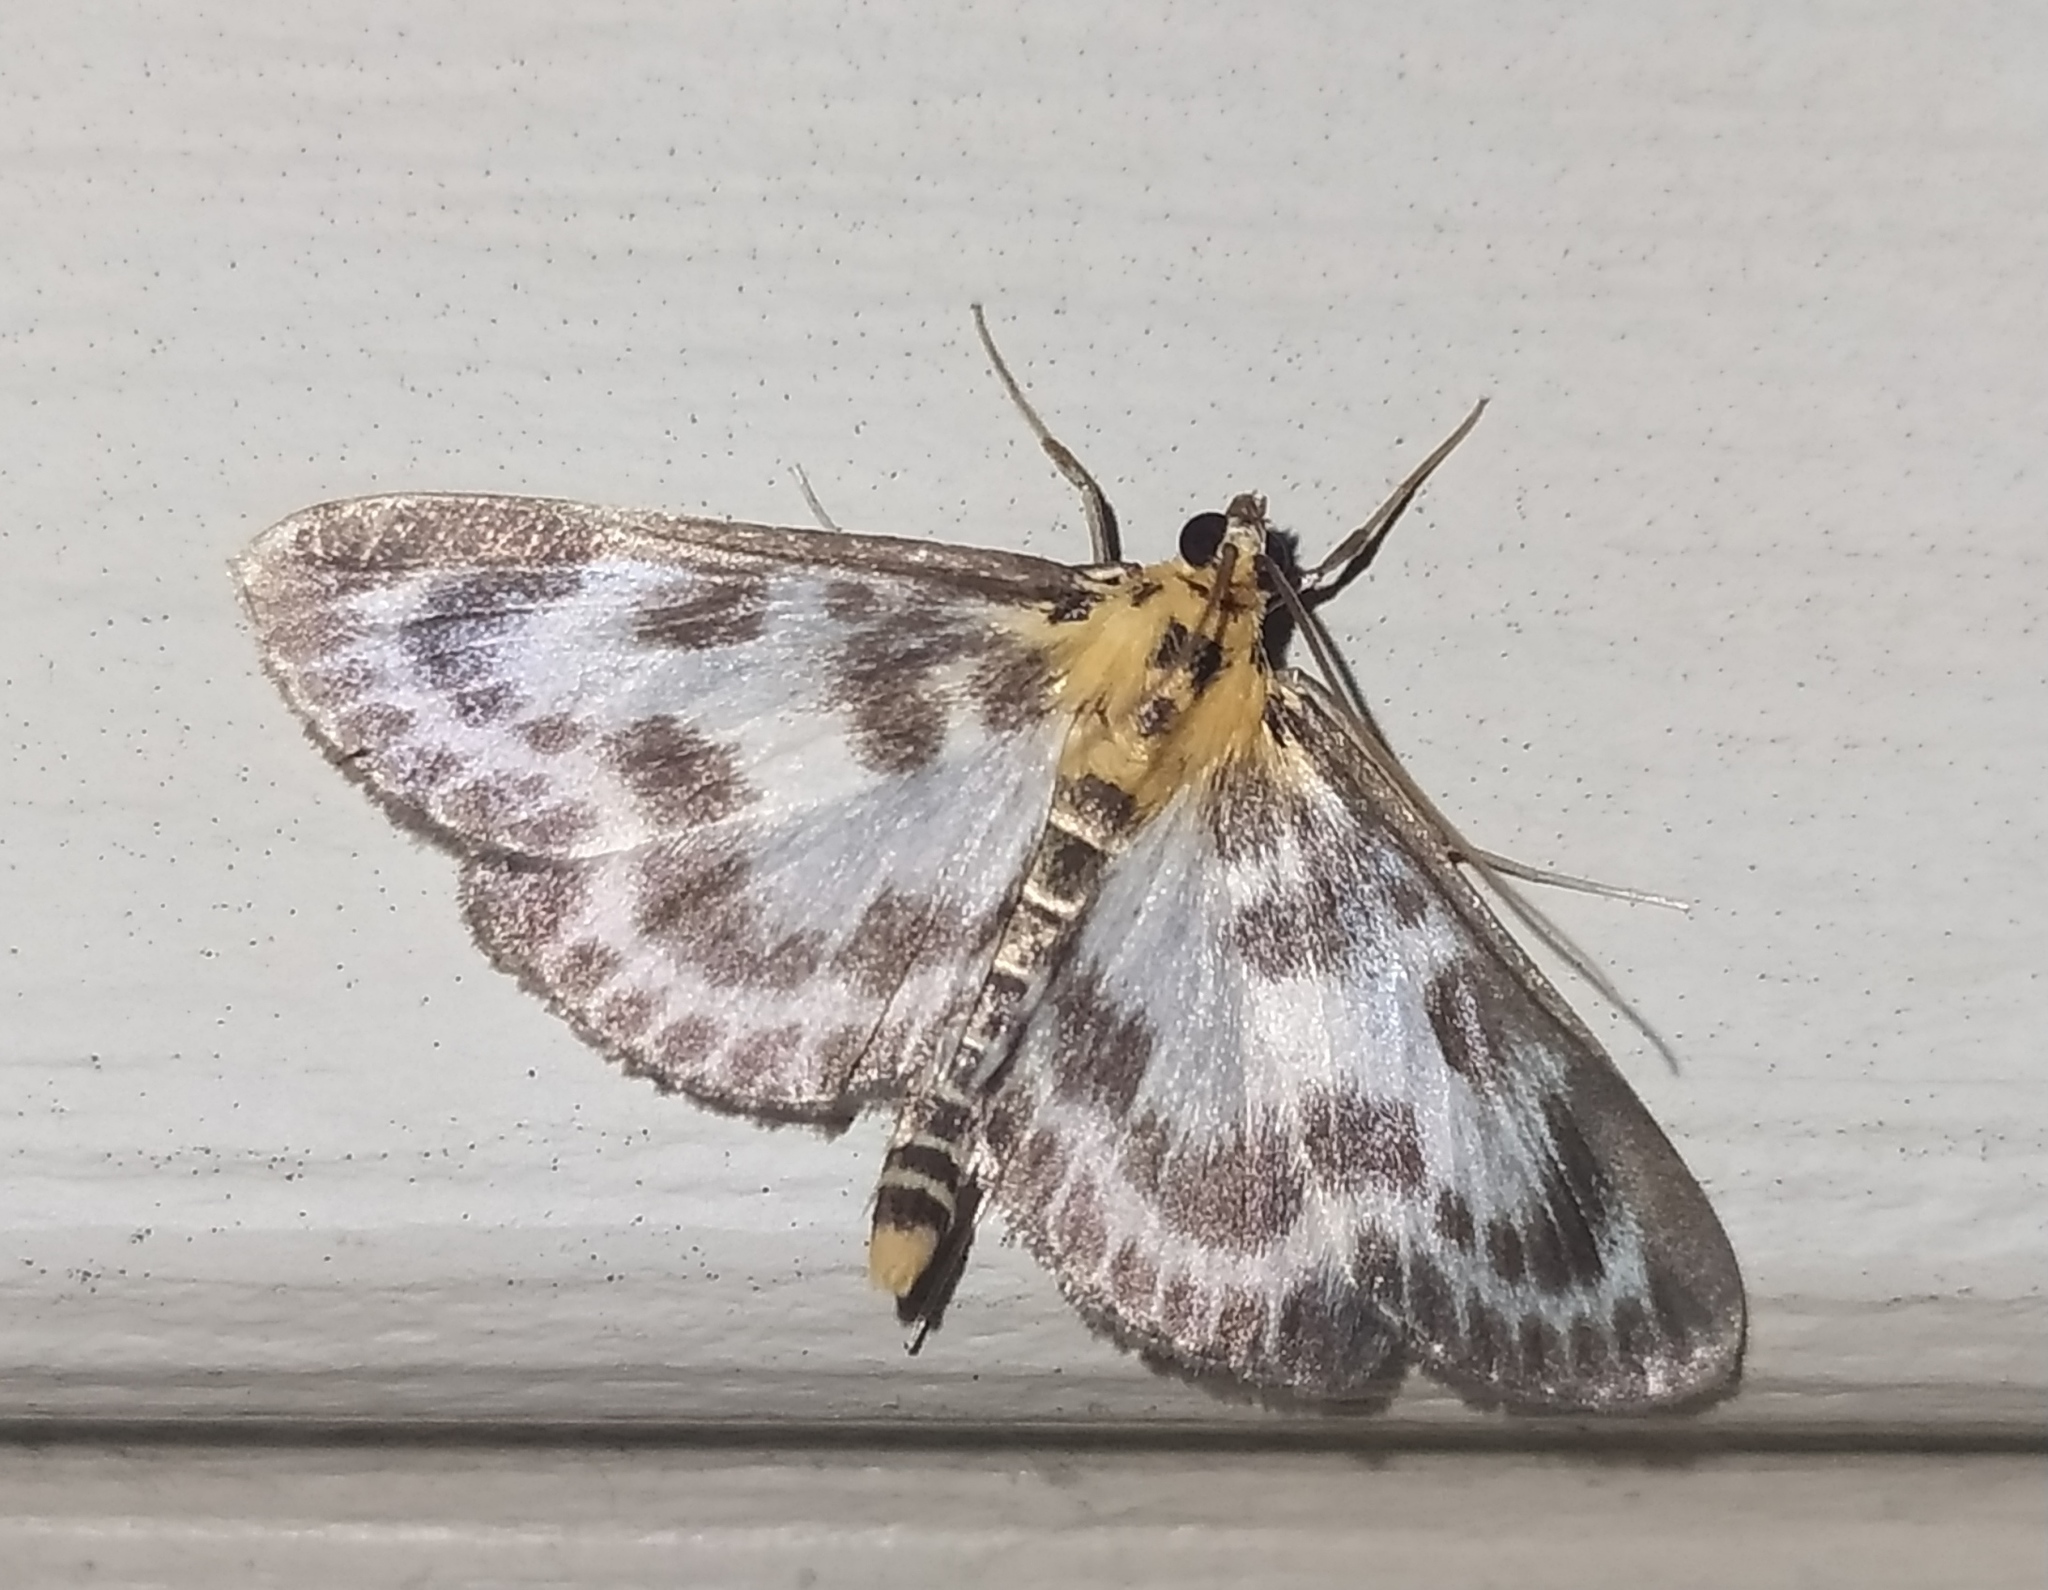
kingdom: Animalia
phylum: Arthropoda
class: Insecta
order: Lepidoptera
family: Crambidae
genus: Anania
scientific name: Anania hortulata
